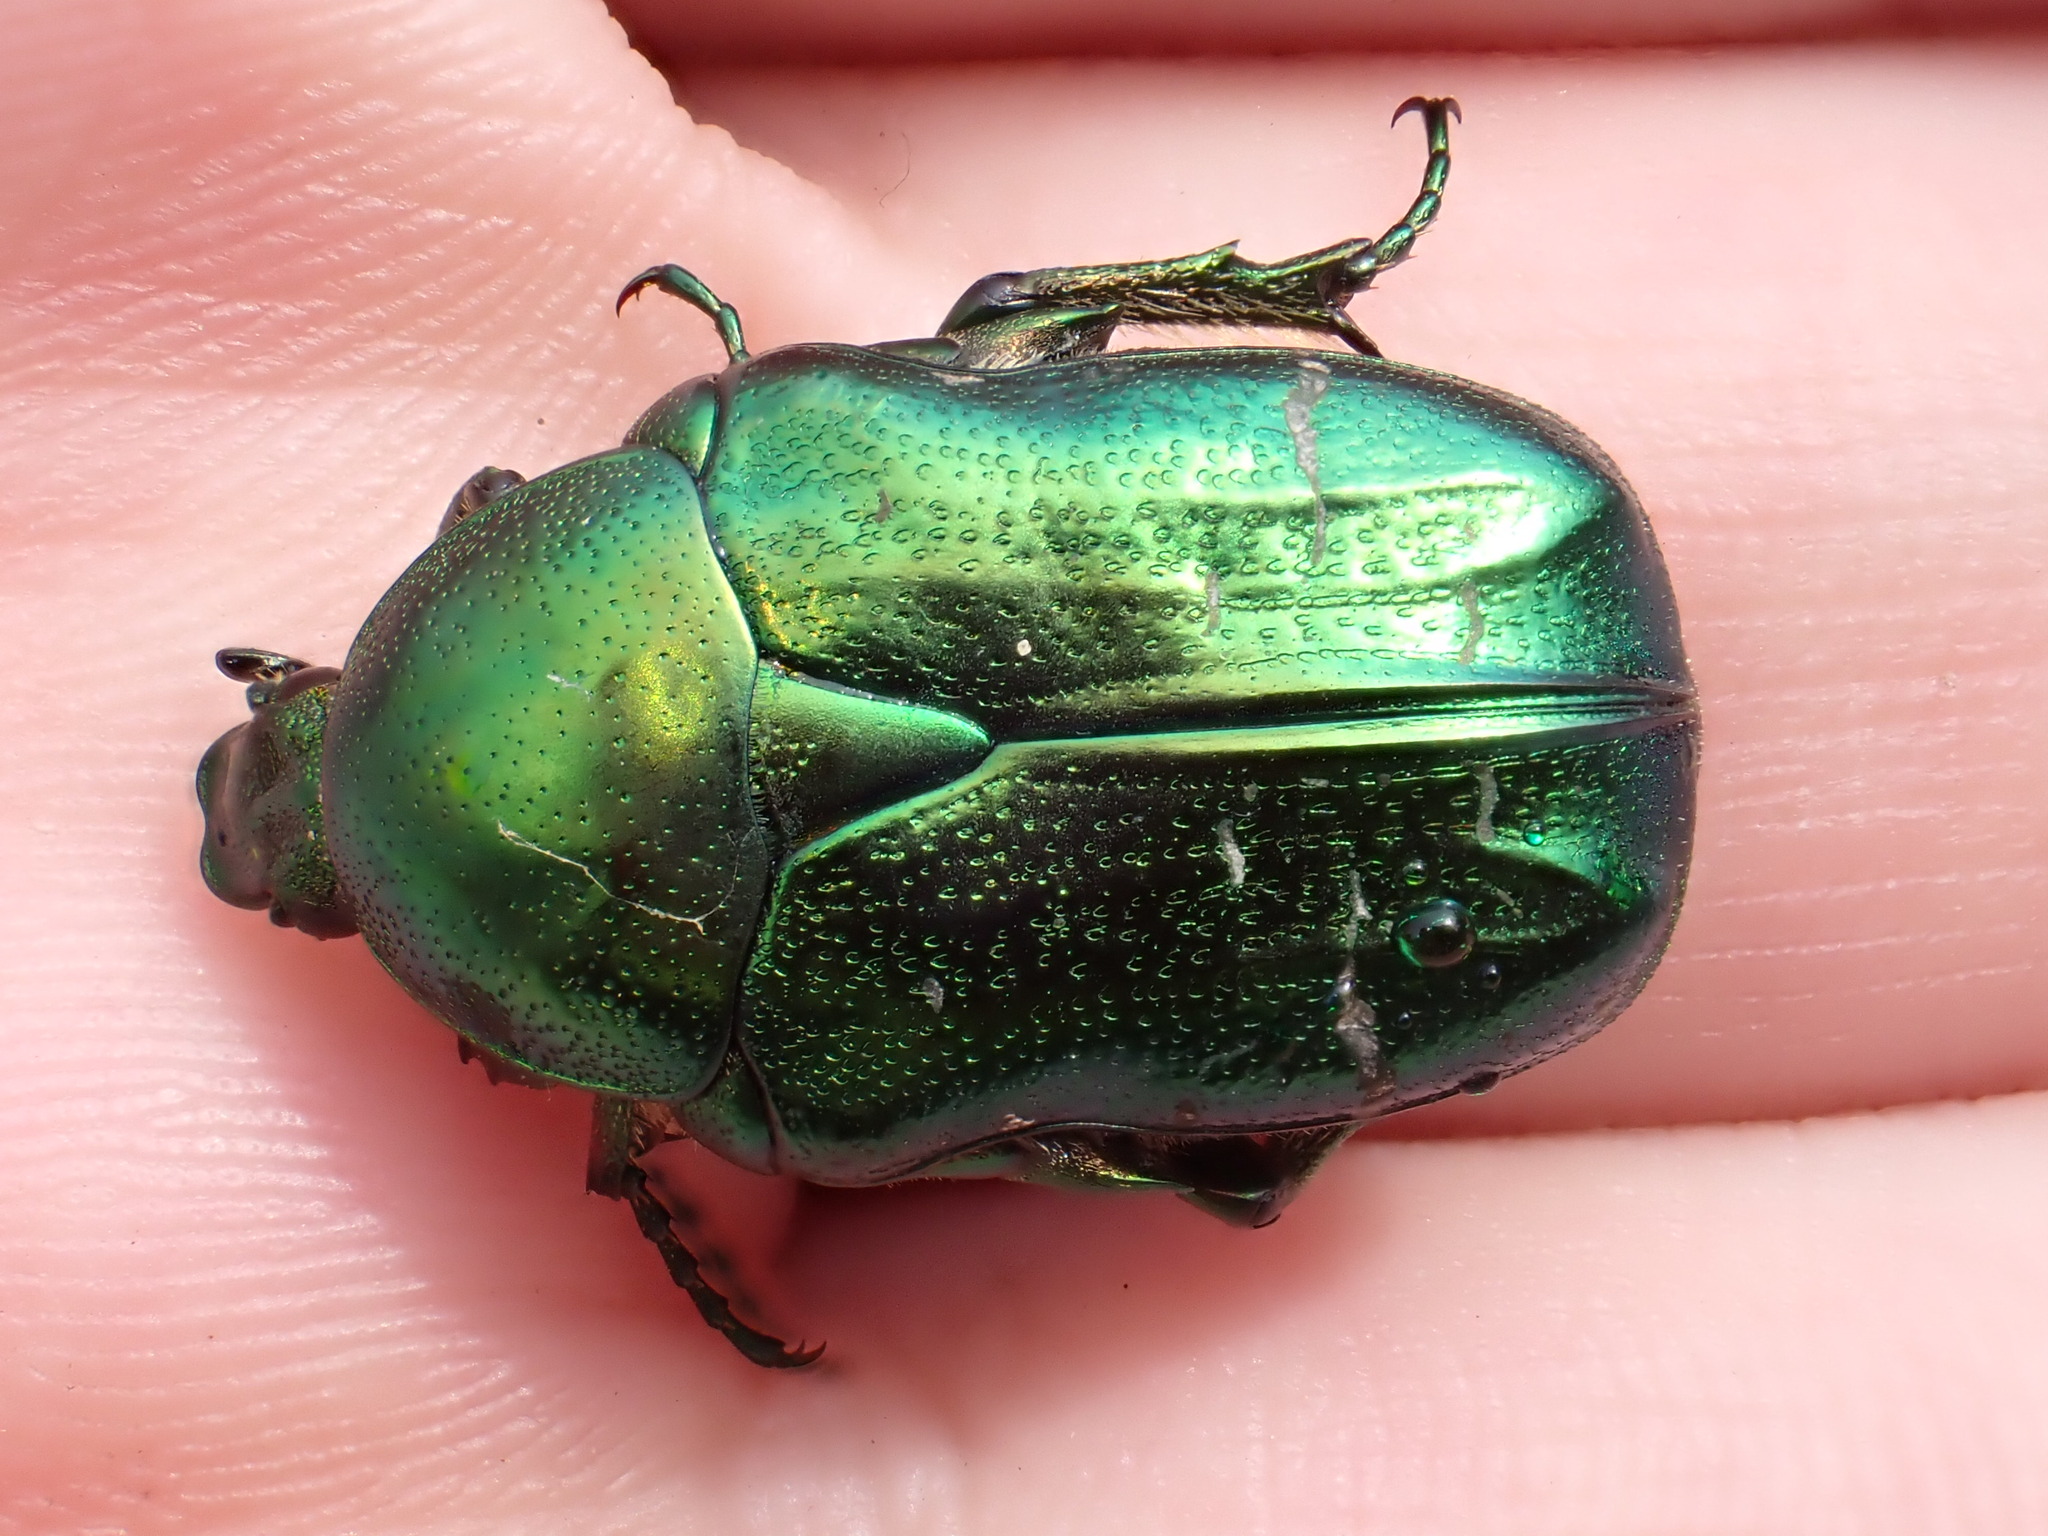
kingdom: Animalia
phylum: Arthropoda
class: Insecta
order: Coleoptera
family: Scarabaeidae
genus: Cetonia
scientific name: Cetonia aurata
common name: Rose chafer
